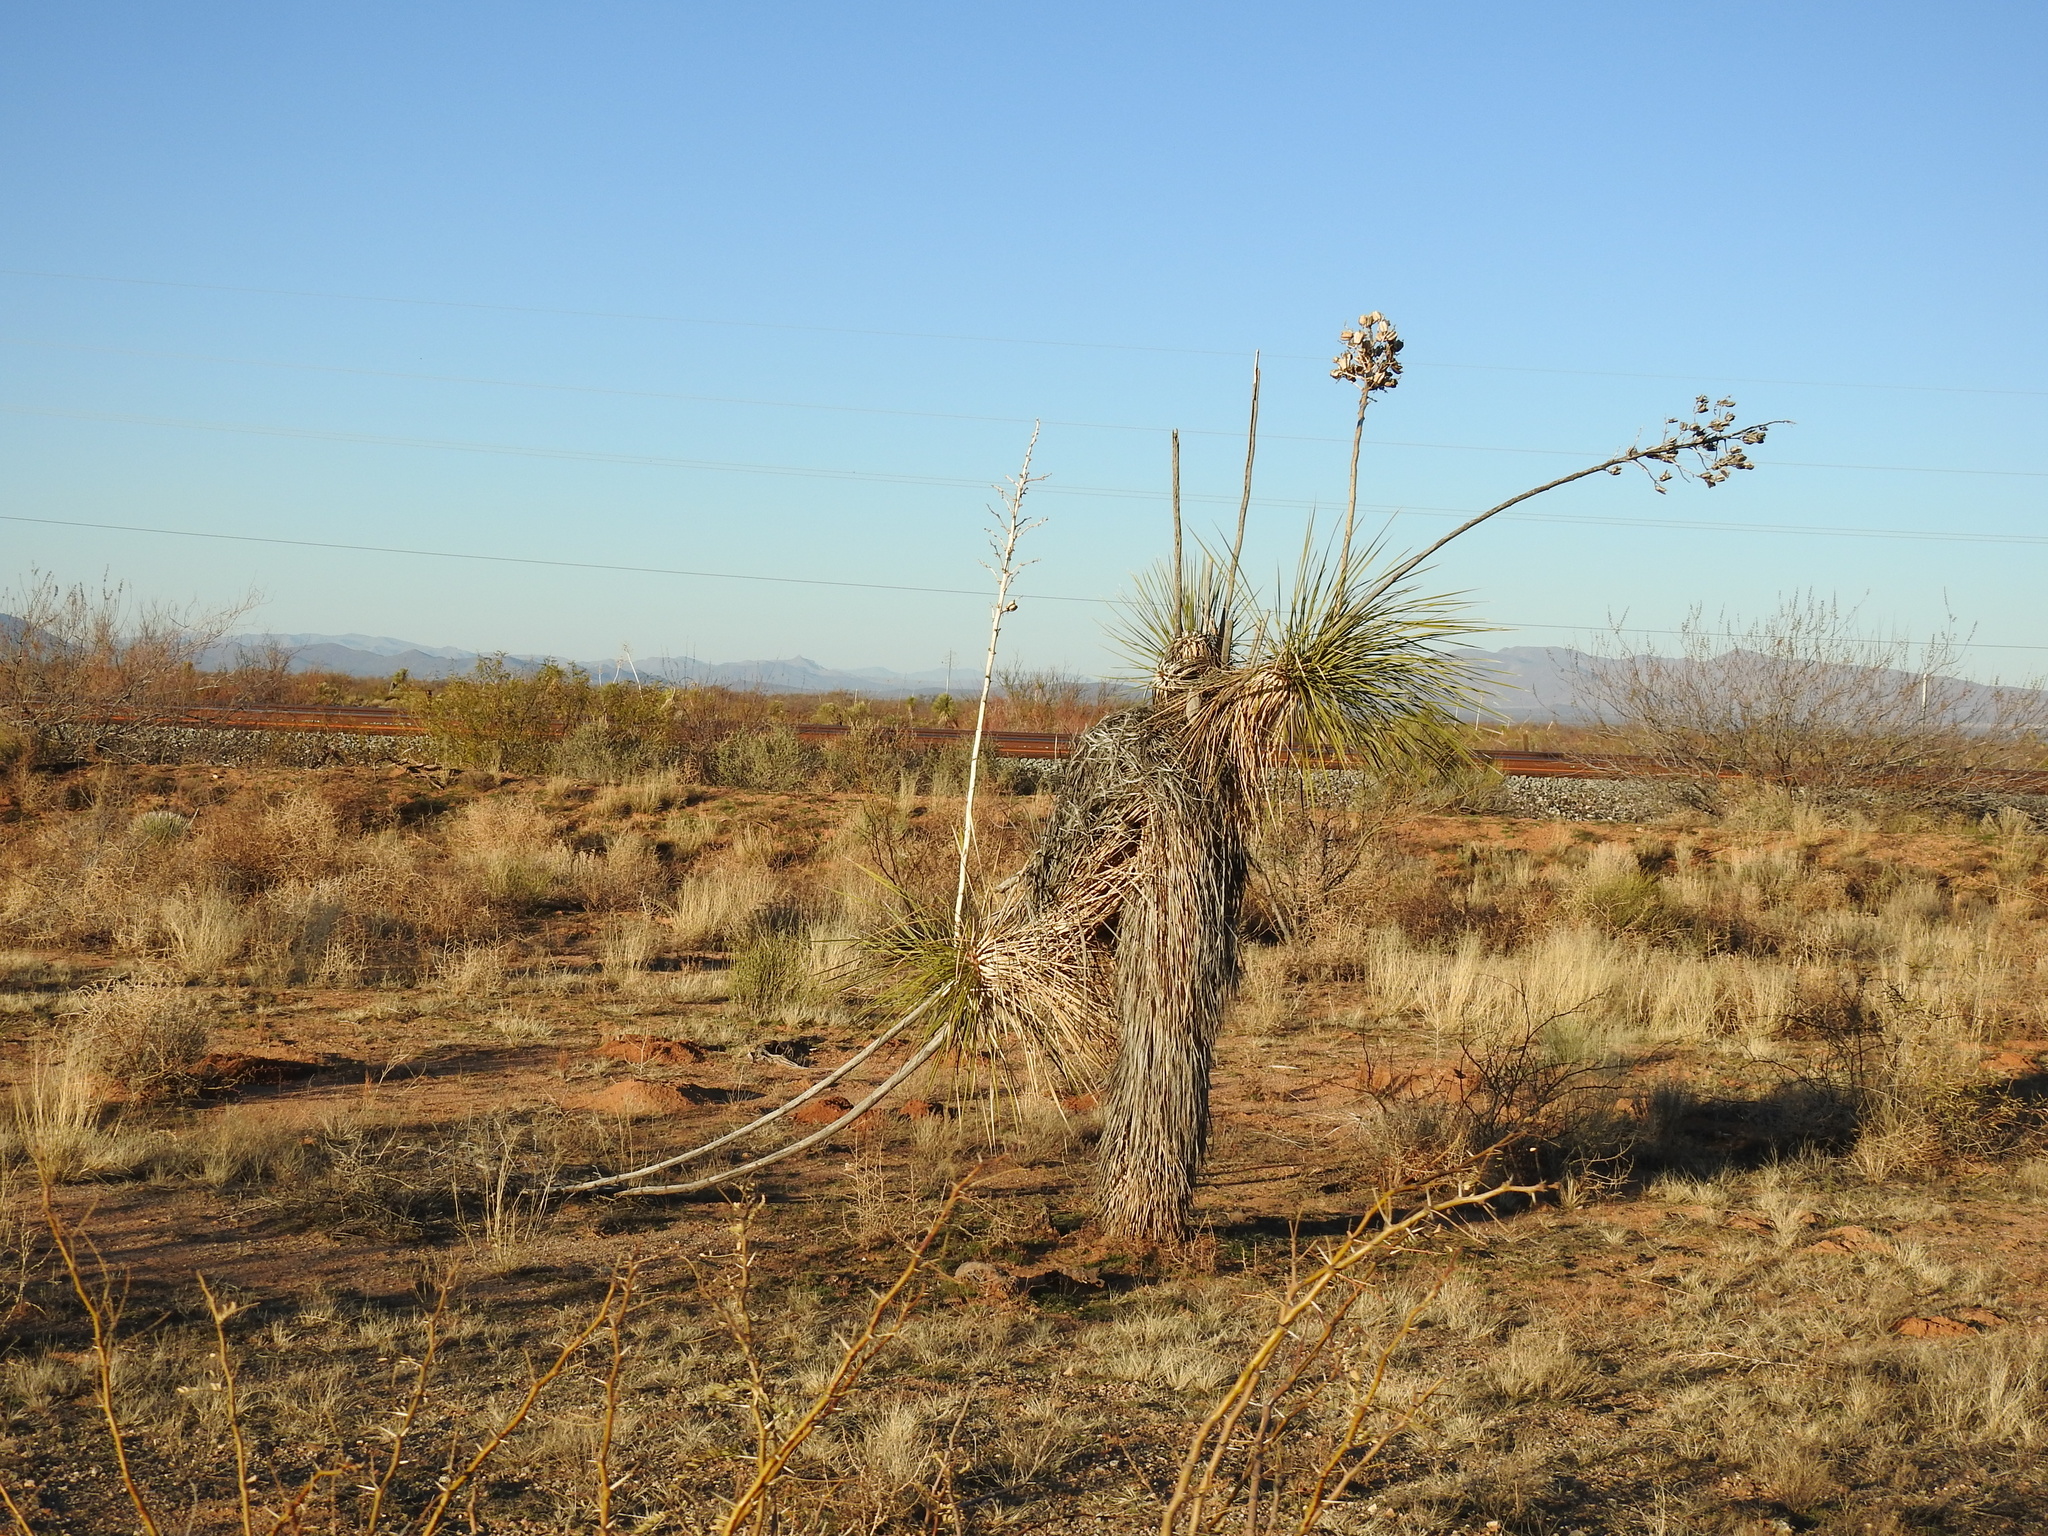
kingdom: Plantae
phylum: Tracheophyta
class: Liliopsida
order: Asparagales
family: Asparagaceae
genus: Yucca
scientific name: Yucca elata
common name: Palmella
